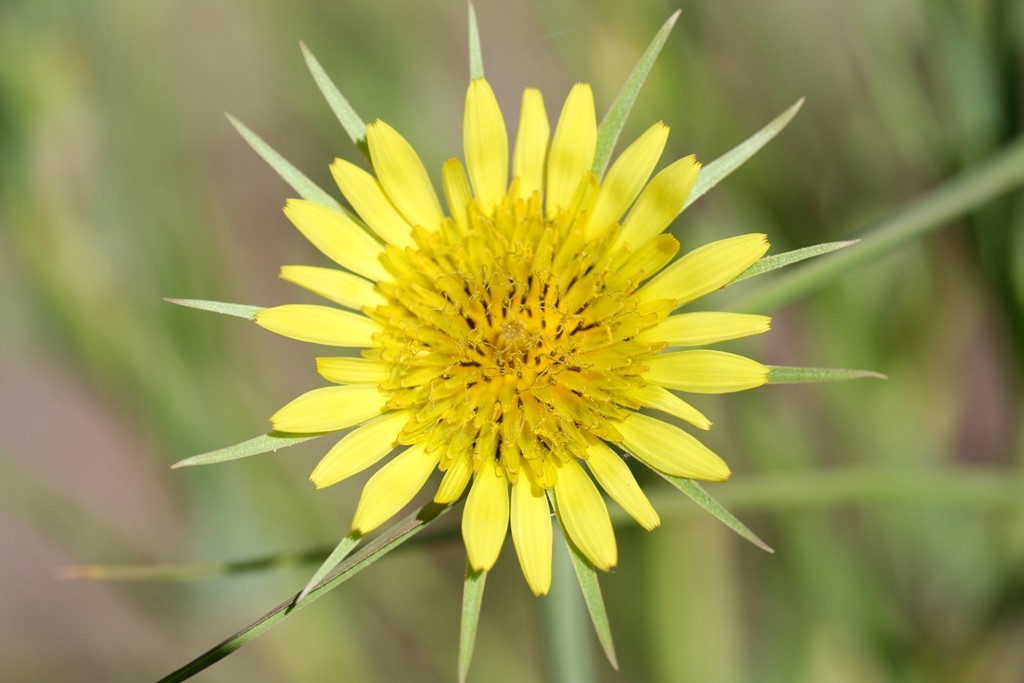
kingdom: Plantae
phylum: Tracheophyta
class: Magnoliopsida
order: Asterales
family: Asteraceae
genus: Tragopogon
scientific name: Tragopogon dubius
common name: Yellow salsify
